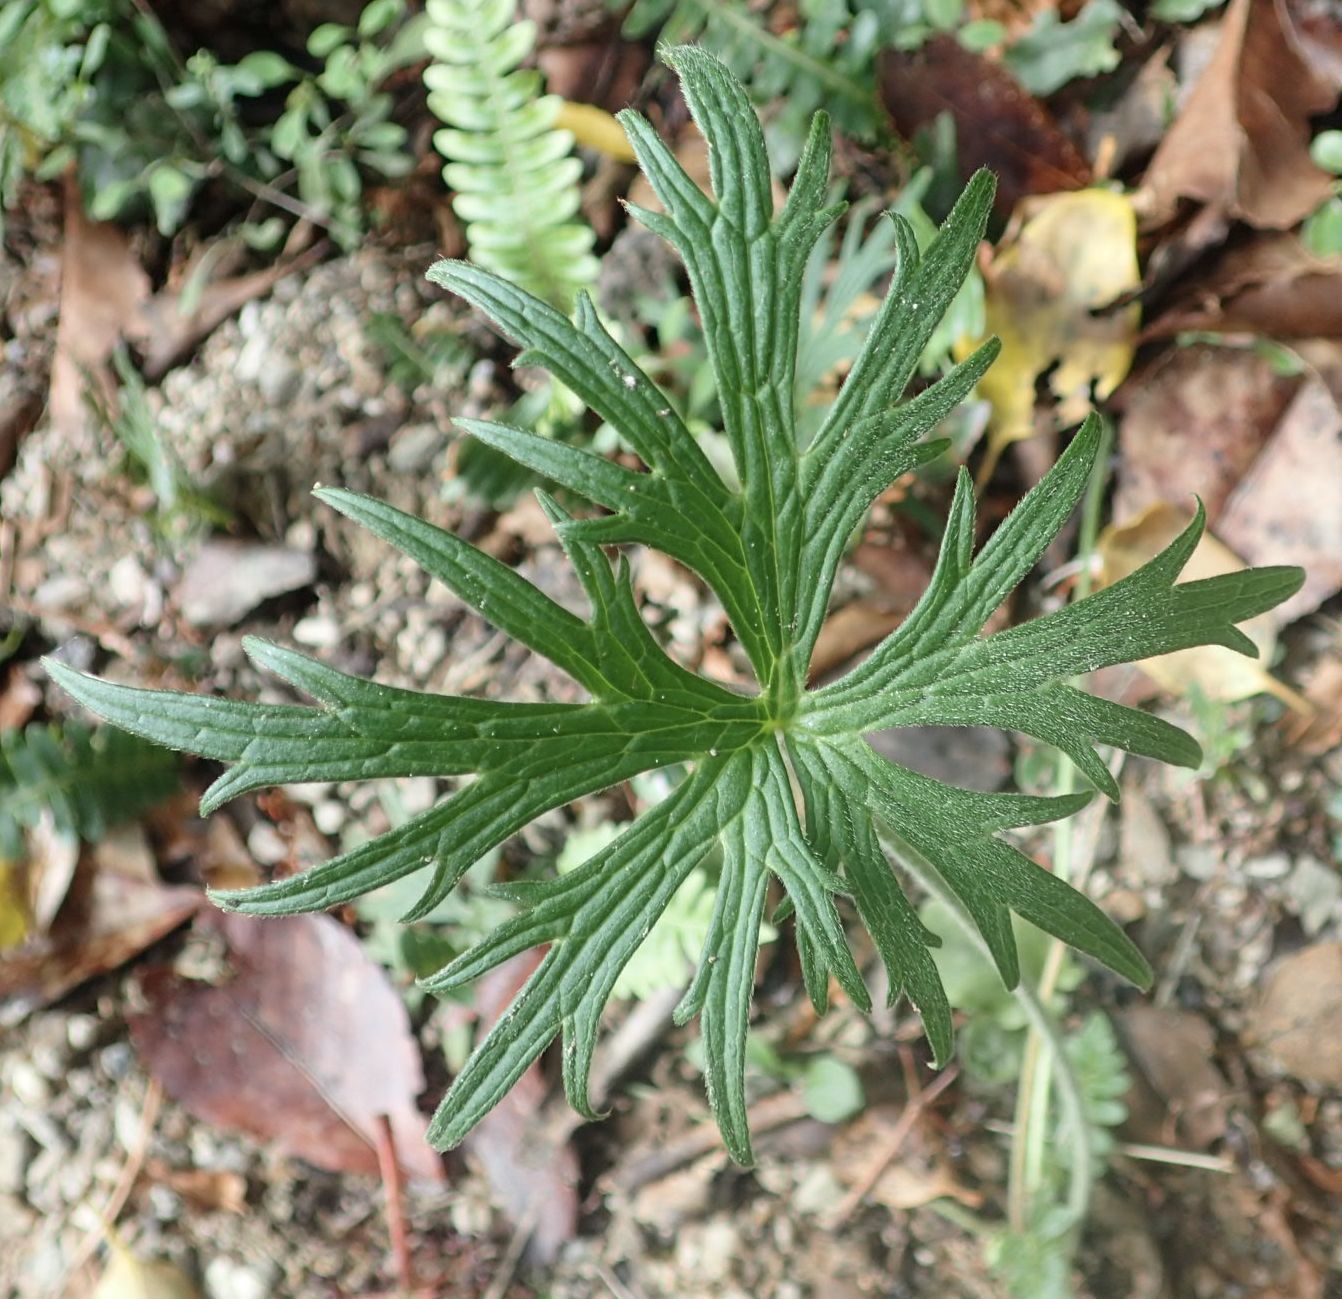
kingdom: Plantae
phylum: Tracheophyta
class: Magnoliopsida
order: Ranunculales
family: Ranunculaceae
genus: Ranunculus
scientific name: Ranunculus acris
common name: Meadow buttercup
